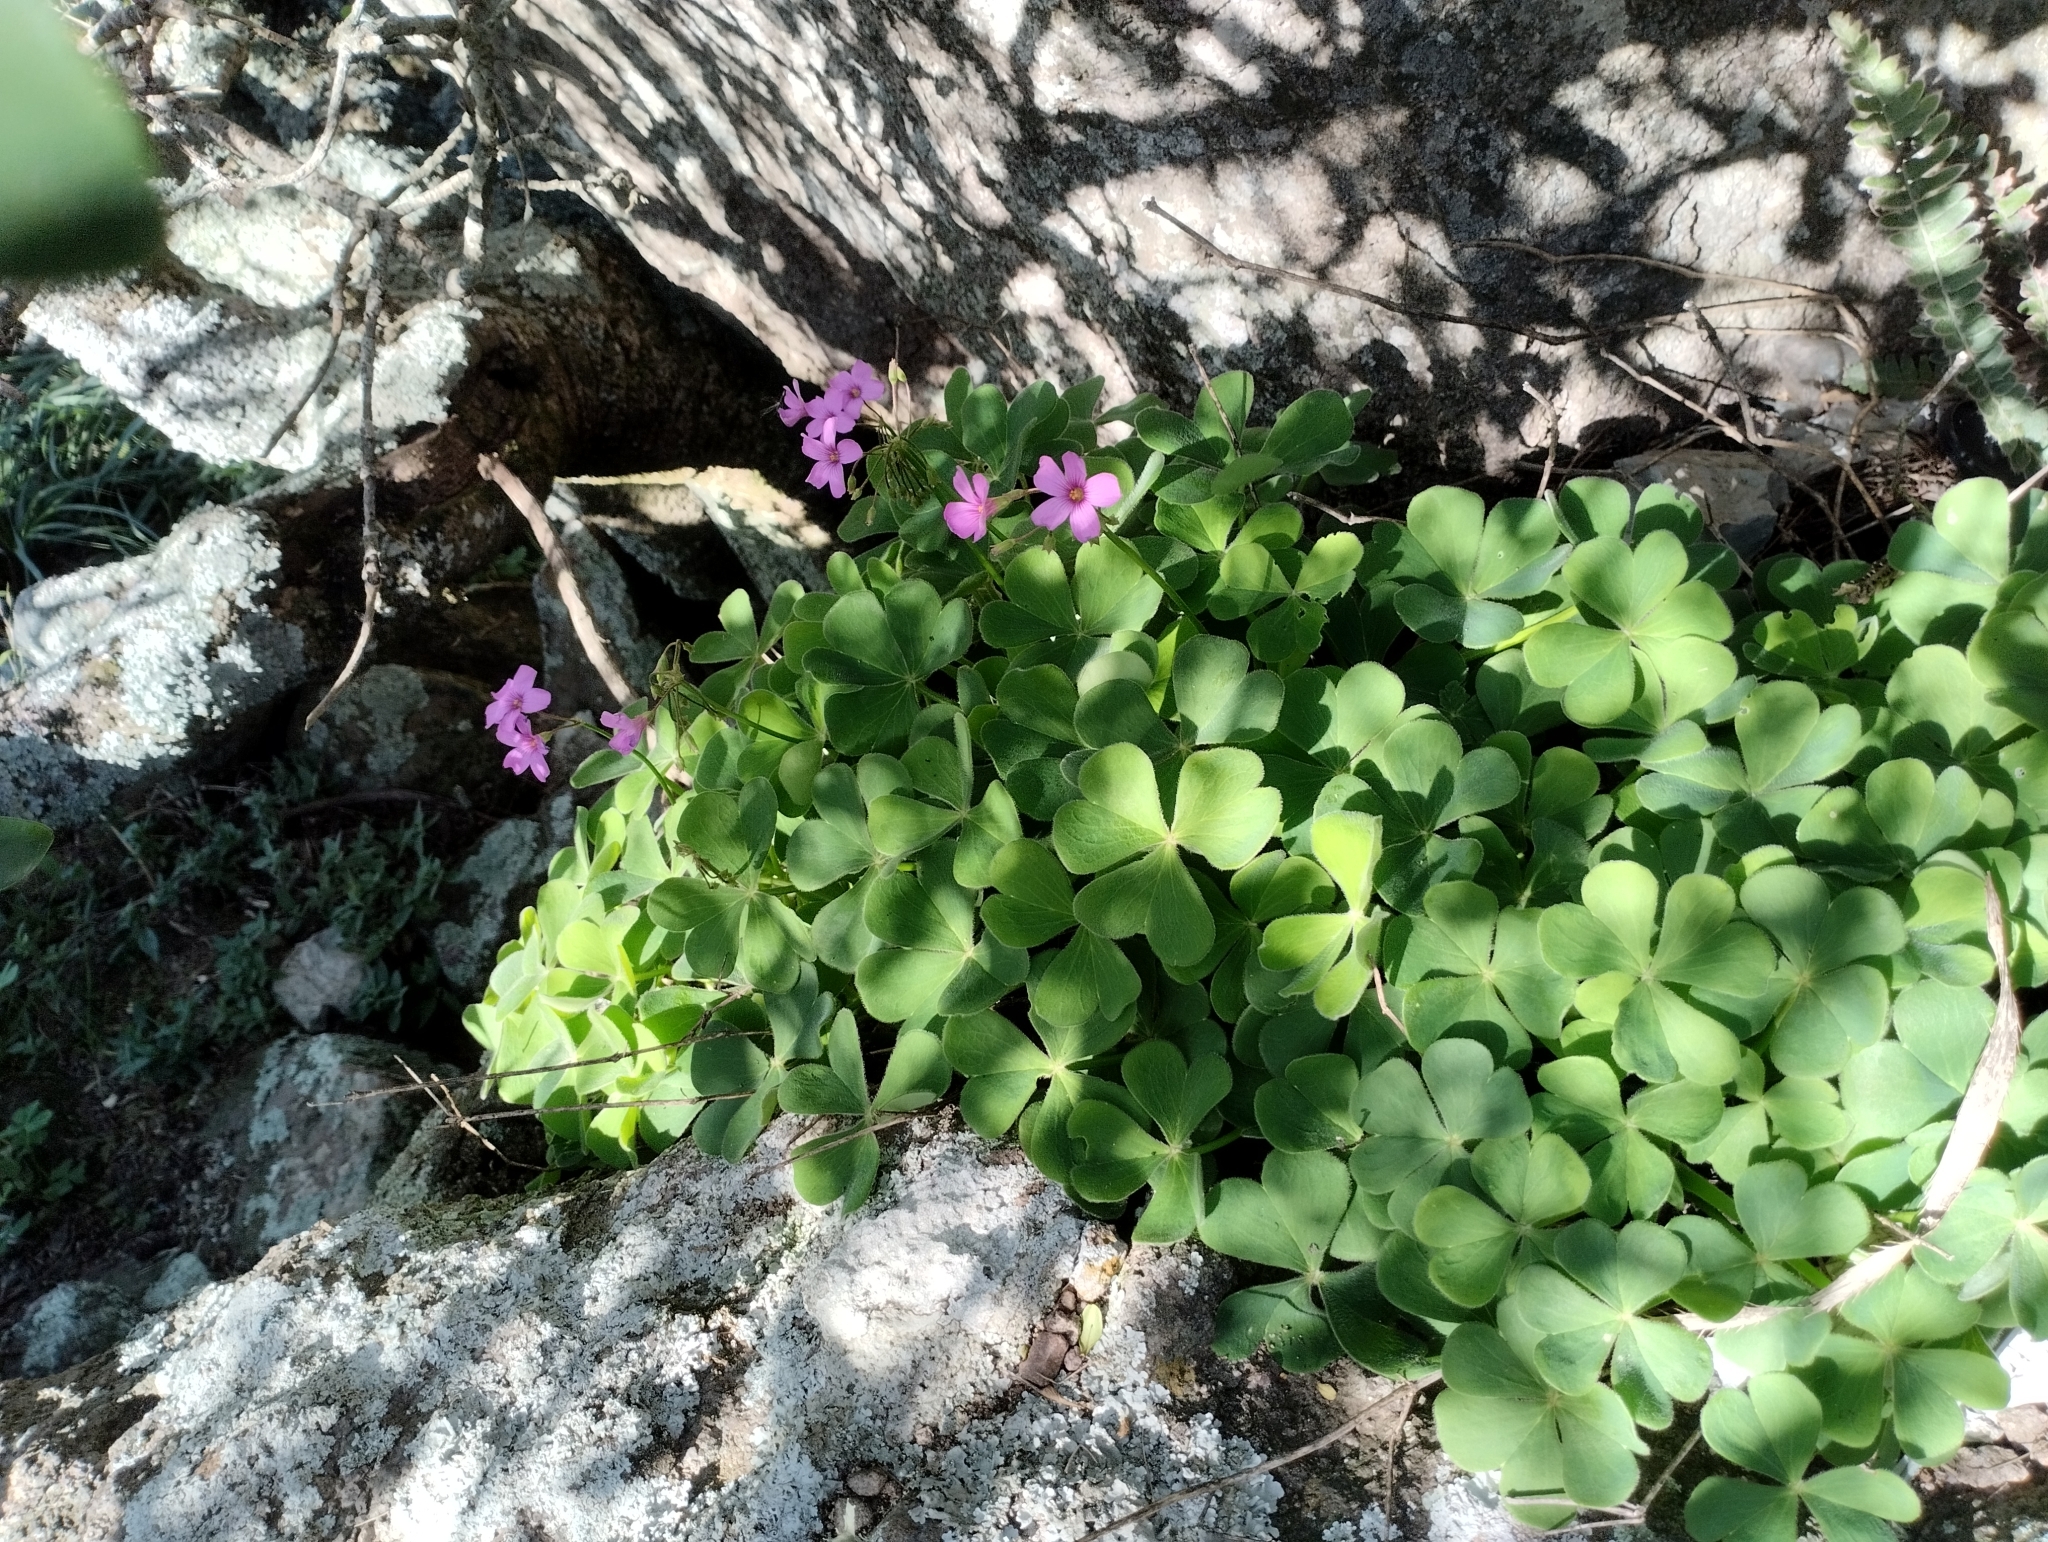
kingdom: Plantae
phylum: Tracheophyta
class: Magnoliopsida
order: Oxalidales
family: Oxalidaceae
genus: Oxalis
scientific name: Oxalis monticola
